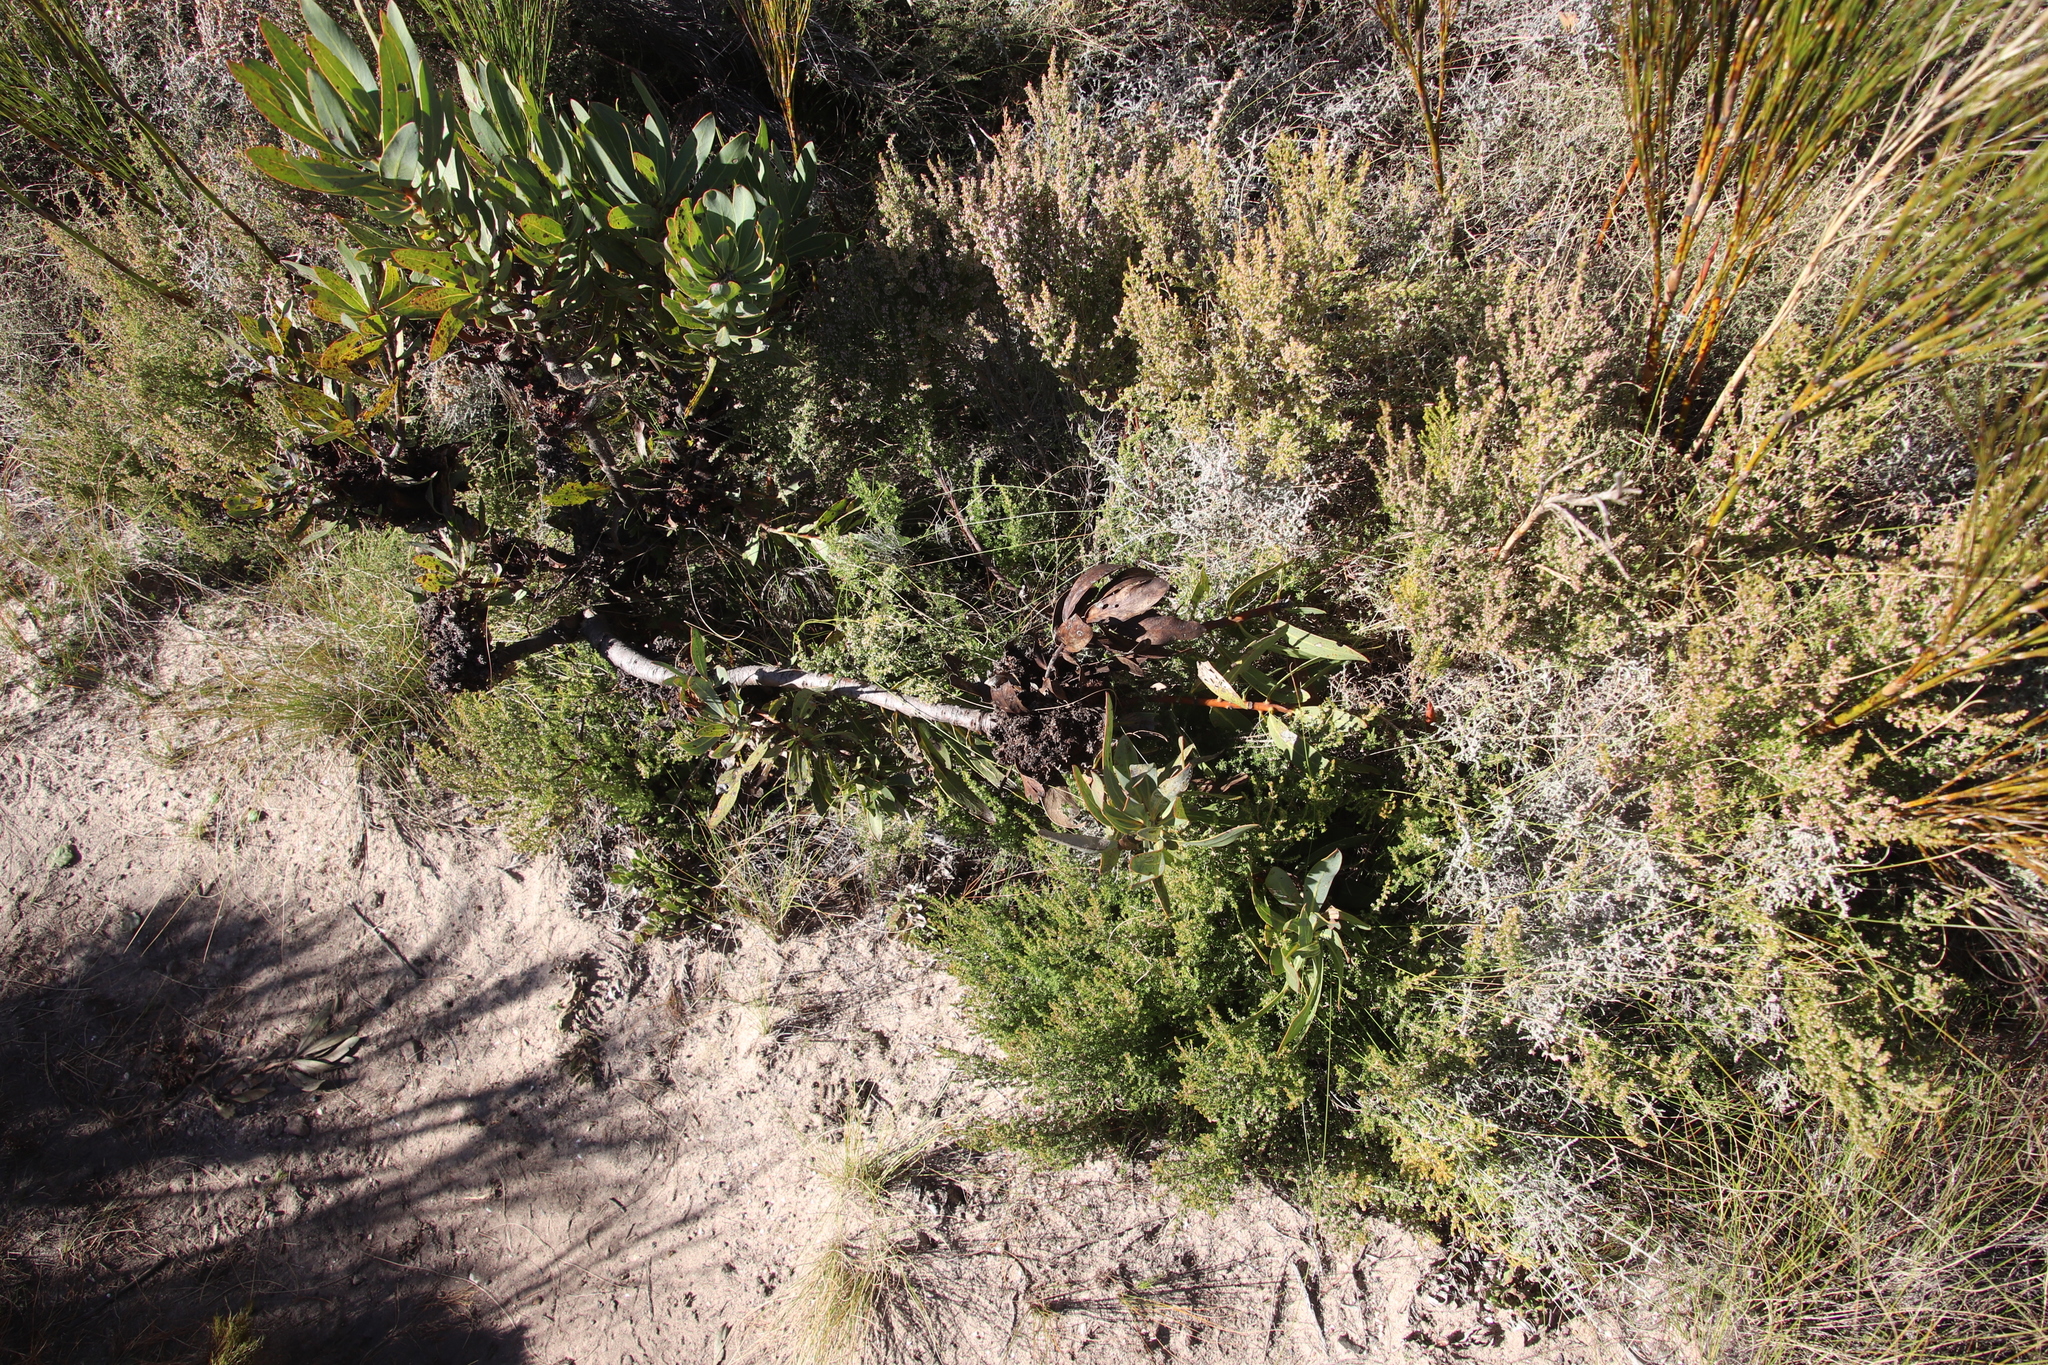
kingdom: Plantae
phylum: Tracheophyta
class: Magnoliopsida
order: Proteales
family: Proteaceae
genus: Protea
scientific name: Protea laurifolia
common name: Grey-leaf sugarbsh
